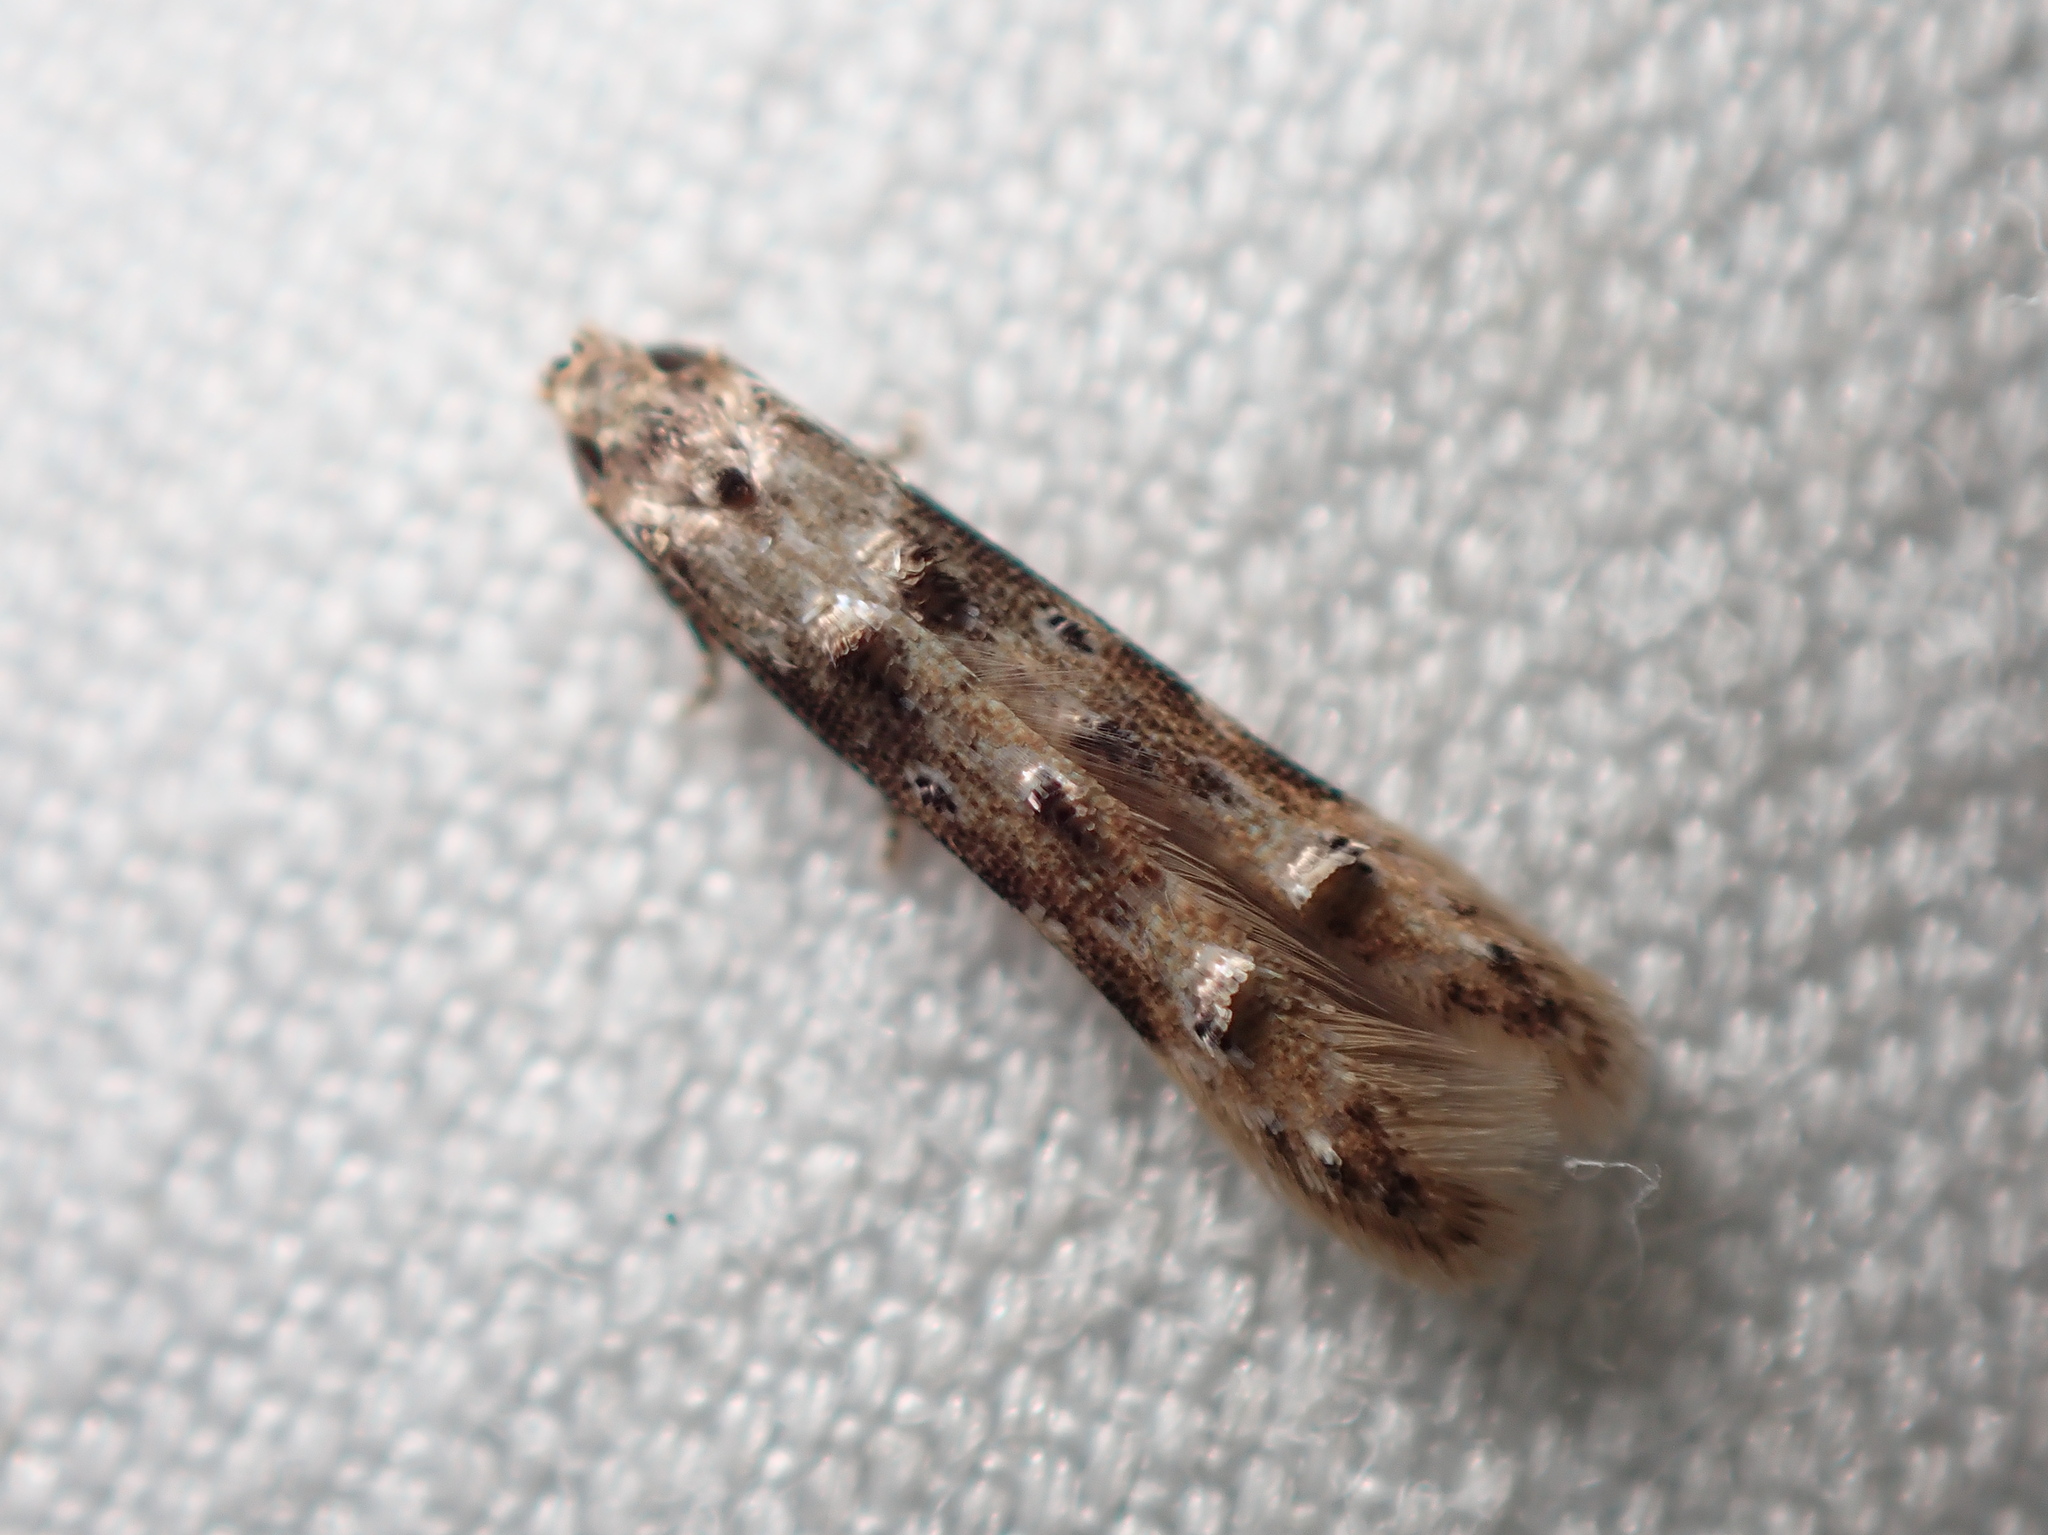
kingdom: Animalia
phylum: Arthropoda
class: Insecta
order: Lepidoptera
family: Elachistidae
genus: Microcolona
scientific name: Microcolona limodes
